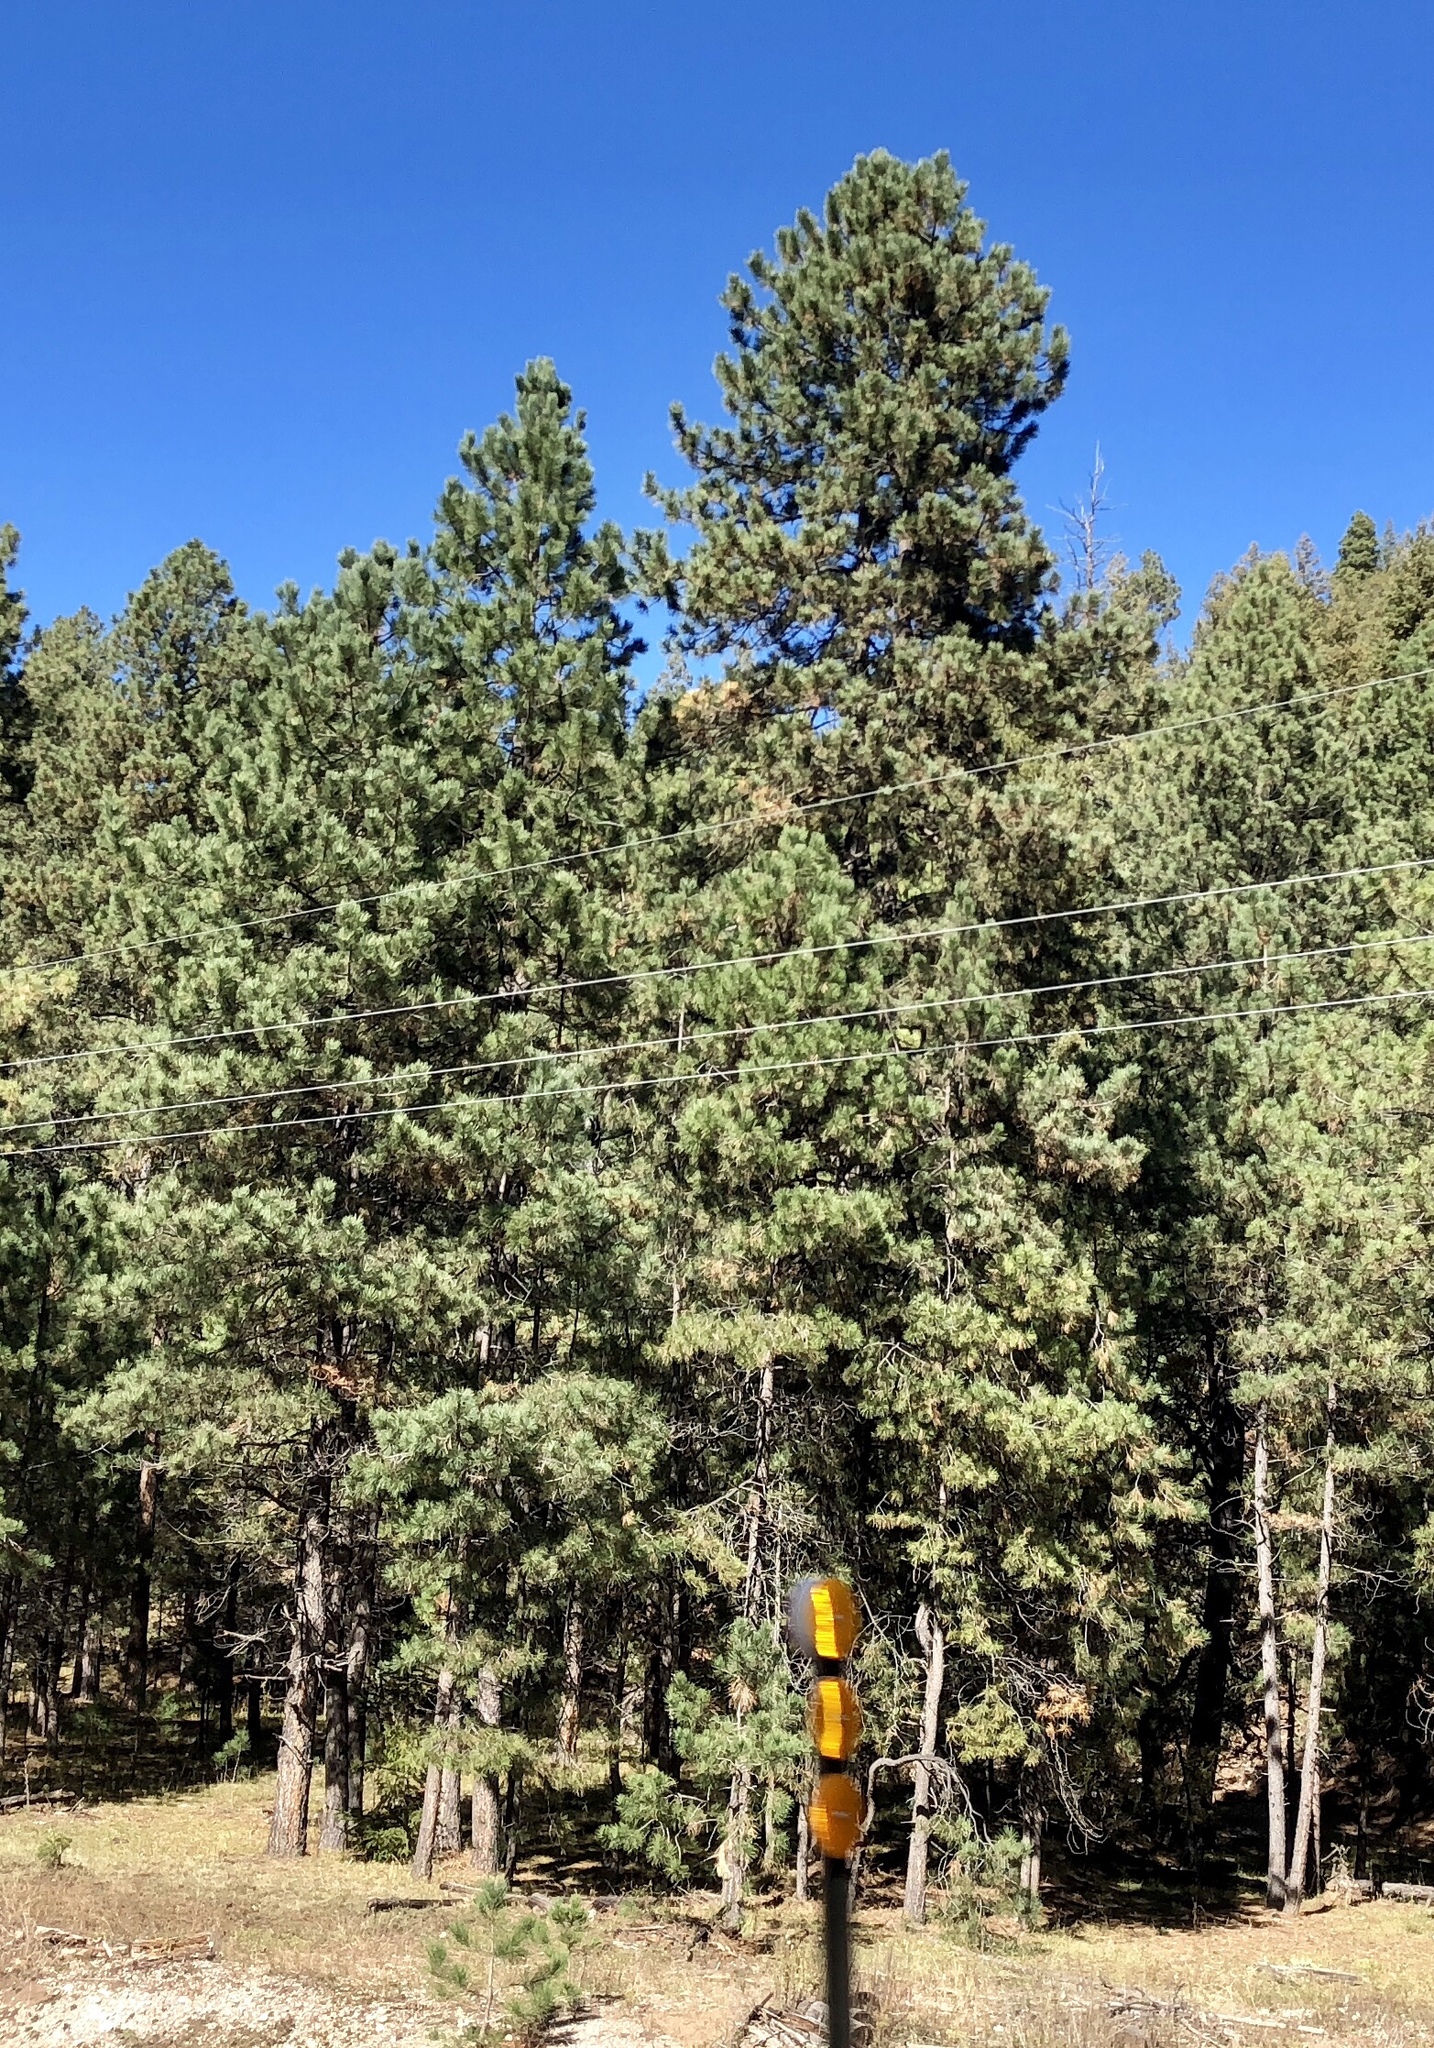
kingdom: Plantae
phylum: Tracheophyta
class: Pinopsida
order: Pinales
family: Pinaceae
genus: Pinus
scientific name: Pinus ponderosa
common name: Western yellow-pine
